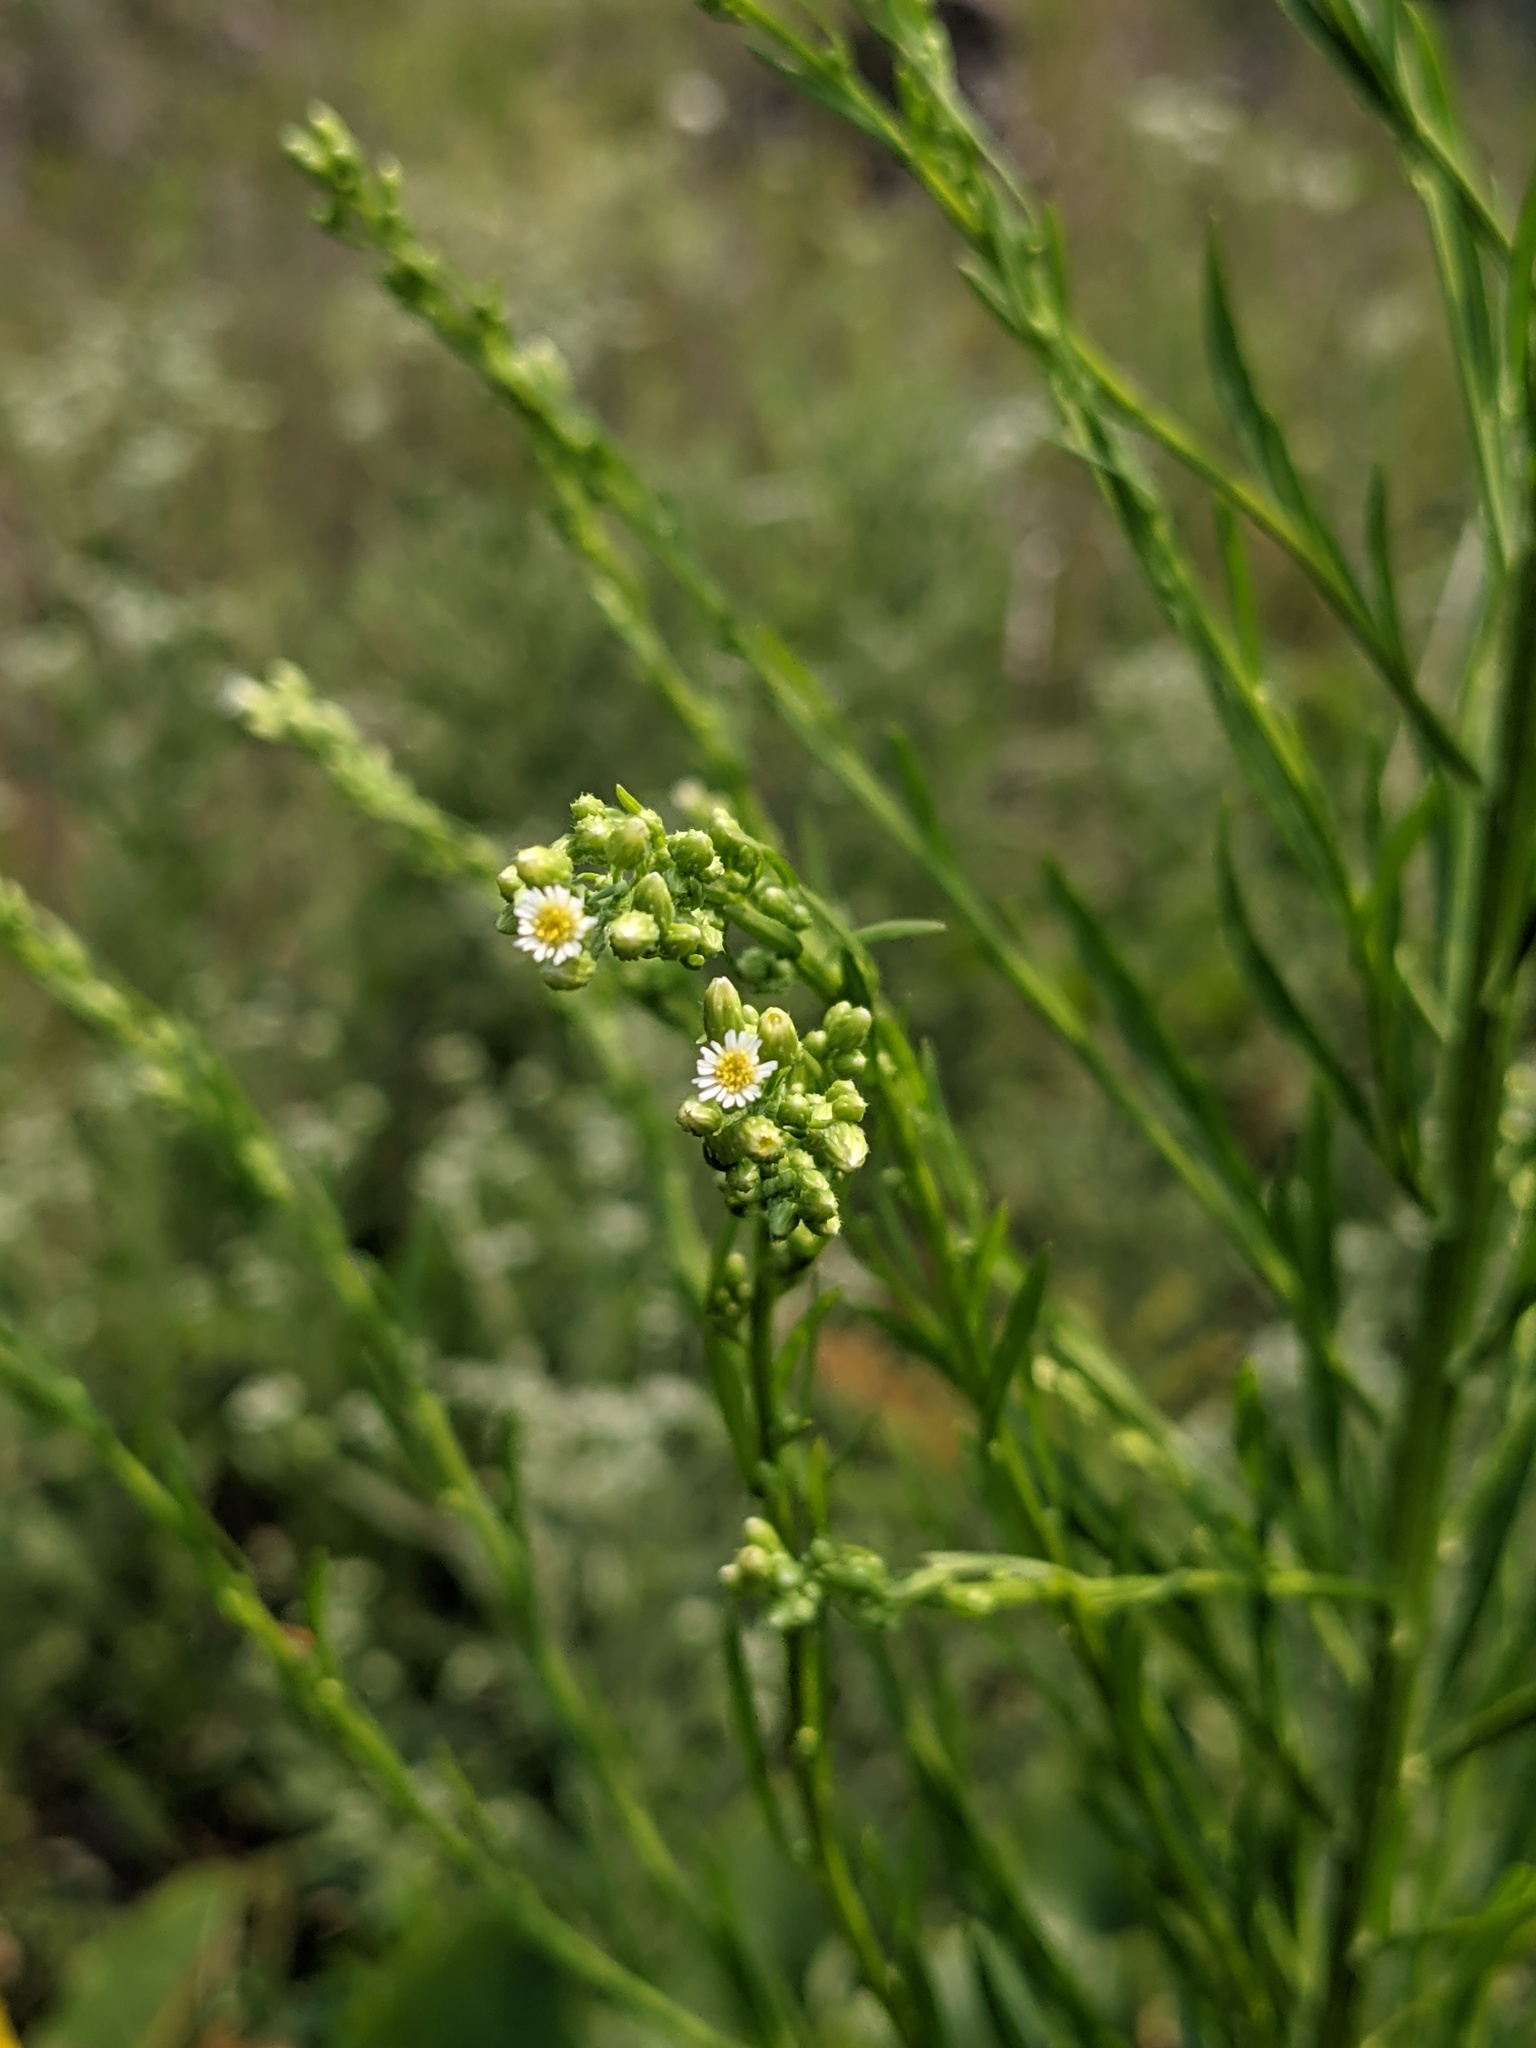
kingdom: Plantae
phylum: Tracheophyta
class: Magnoliopsida
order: Asterales
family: Asteraceae
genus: Erigeron
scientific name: Erigeron canadensis
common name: Canadian fleabane
